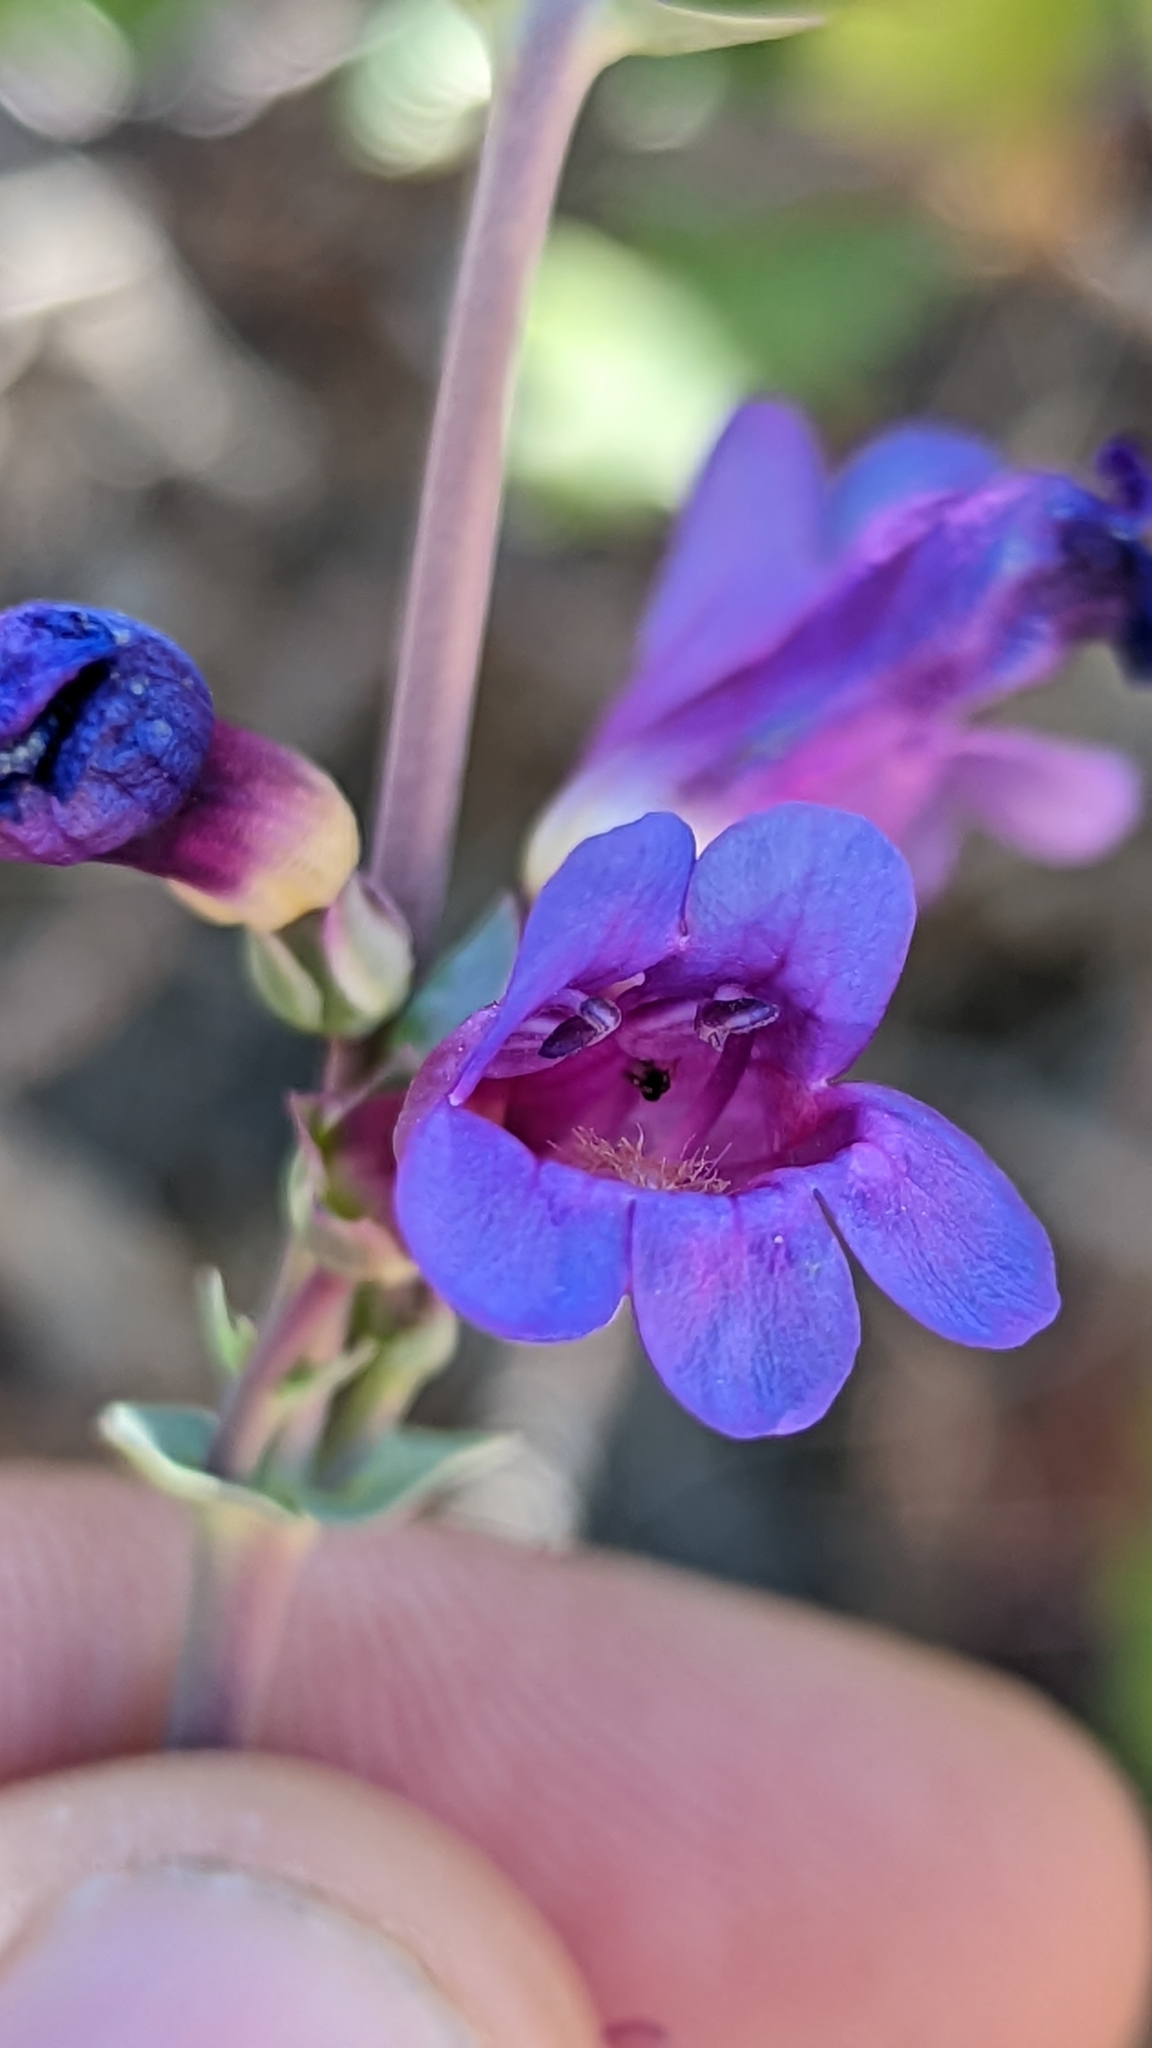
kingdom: Plantae
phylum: Tracheophyta
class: Magnoliopsida
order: Lamiales
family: Plantaginaceae
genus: Penstemon
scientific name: Penstemon pachyphyllus
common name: Thick-leaf penstemon
